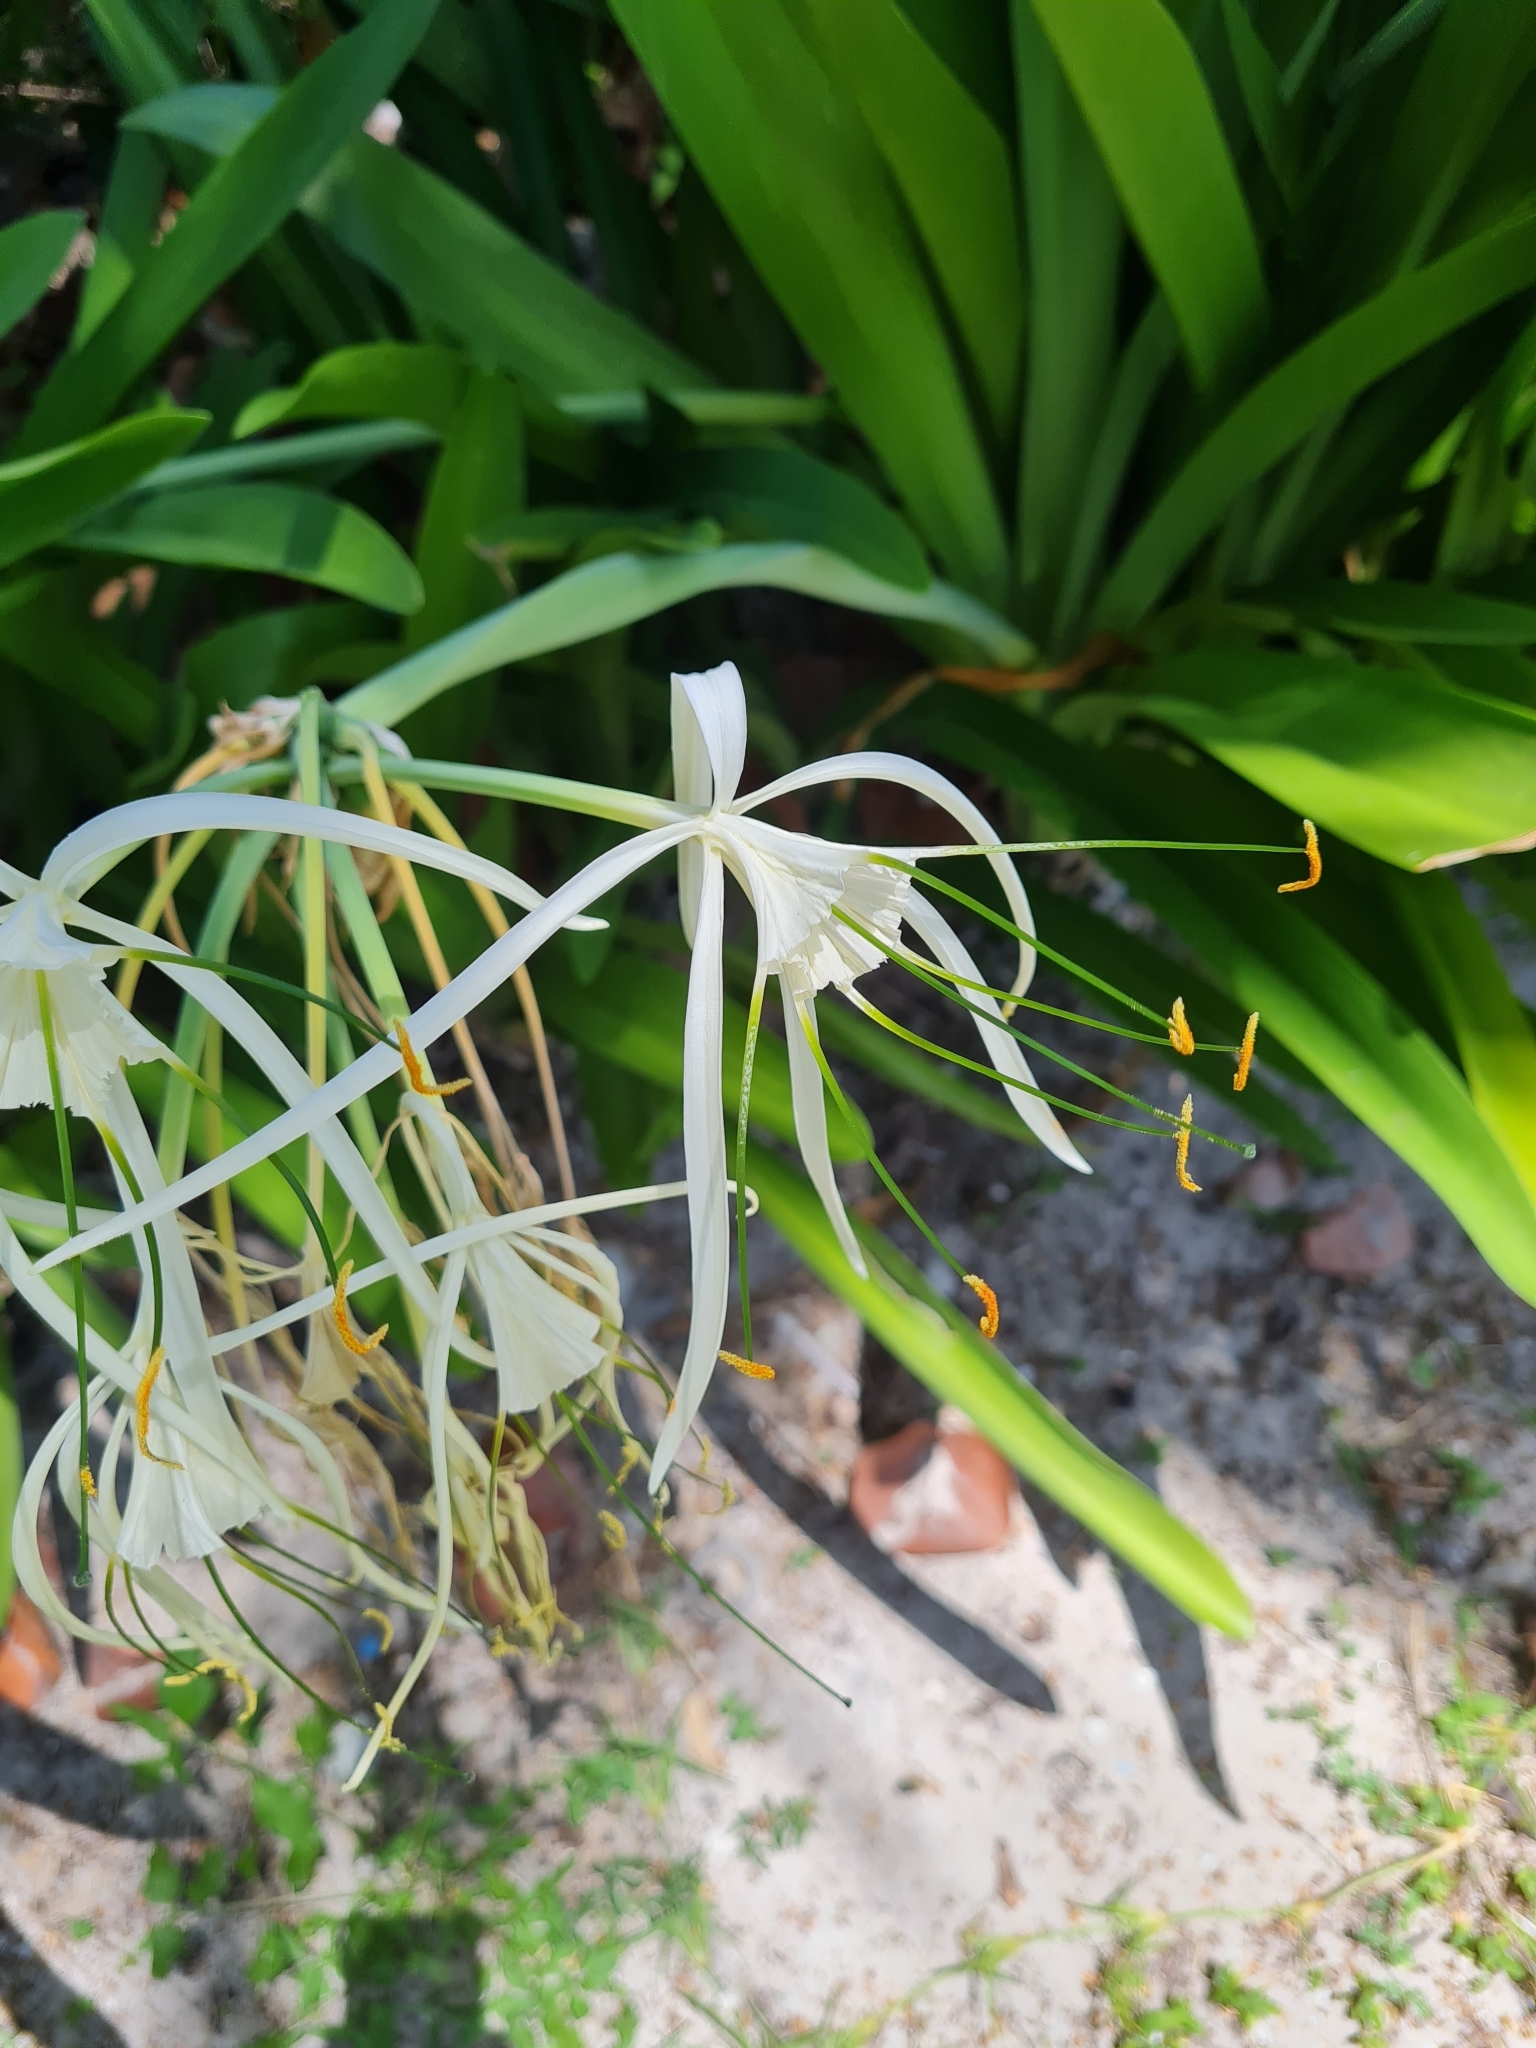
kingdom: Plantae
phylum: Tracheophyta
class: Liliopsida
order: Asparagales
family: Amaryllidaceae
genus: Hymenocallis
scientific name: Hymenocallis littoralis
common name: Beach spiderlily
